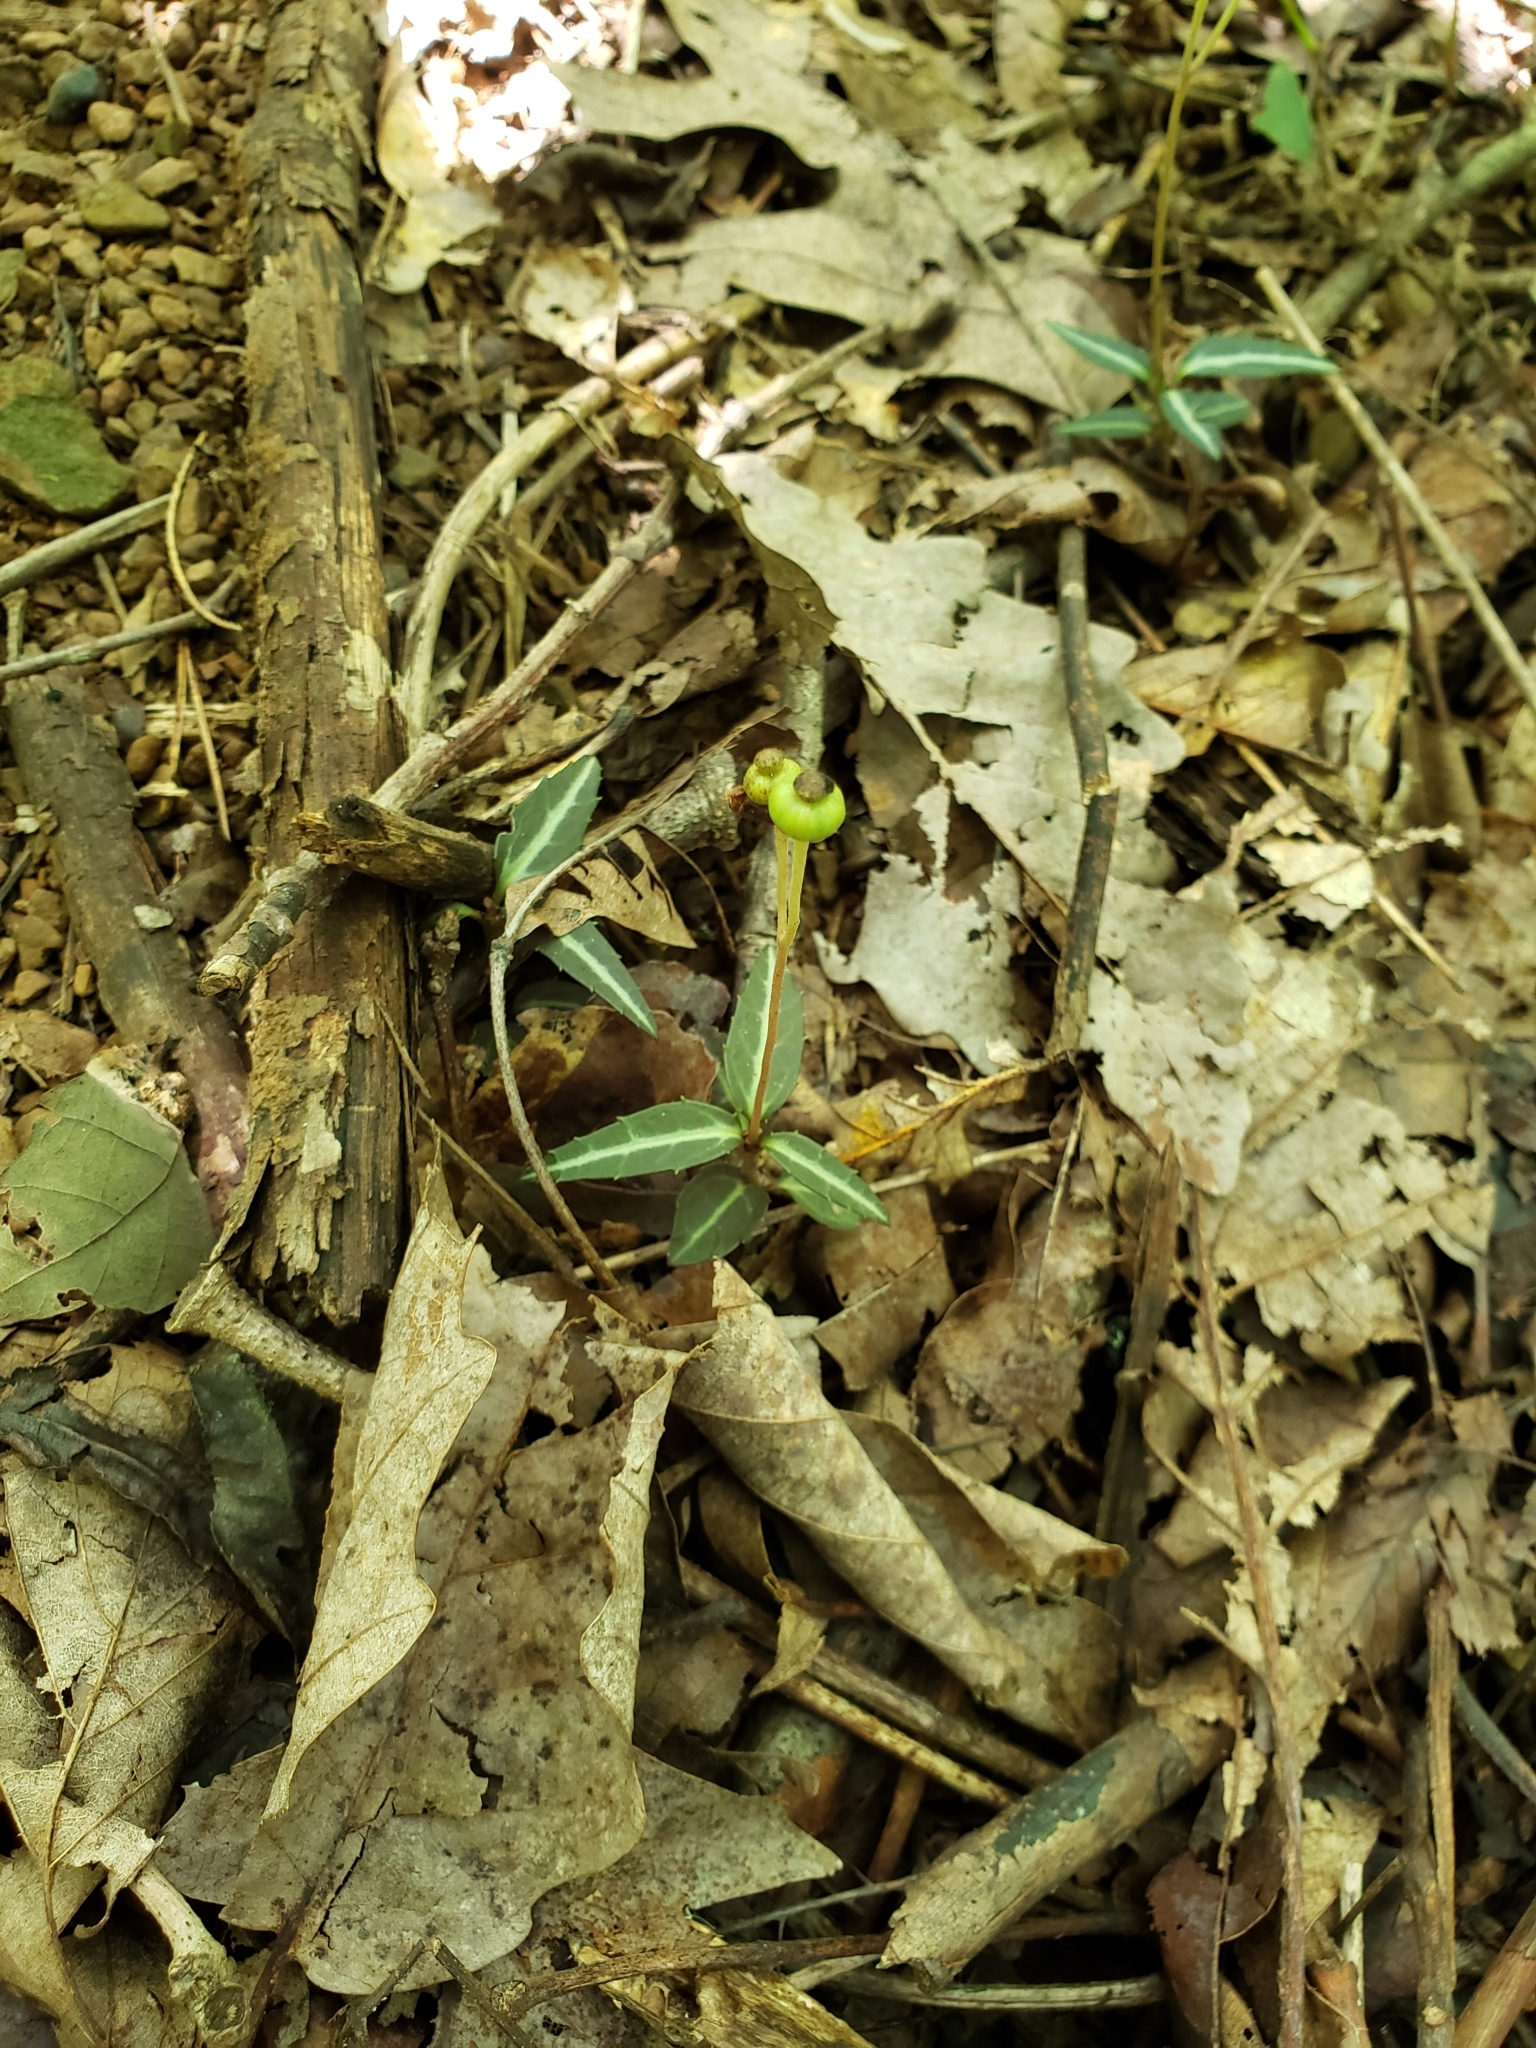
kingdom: Plantae
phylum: Tracheophyta
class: Magnoliopsida
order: Ericales
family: Ericaceae
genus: Chimaphila
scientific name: Chimaphila maculata
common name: Spotted pipsissewa
